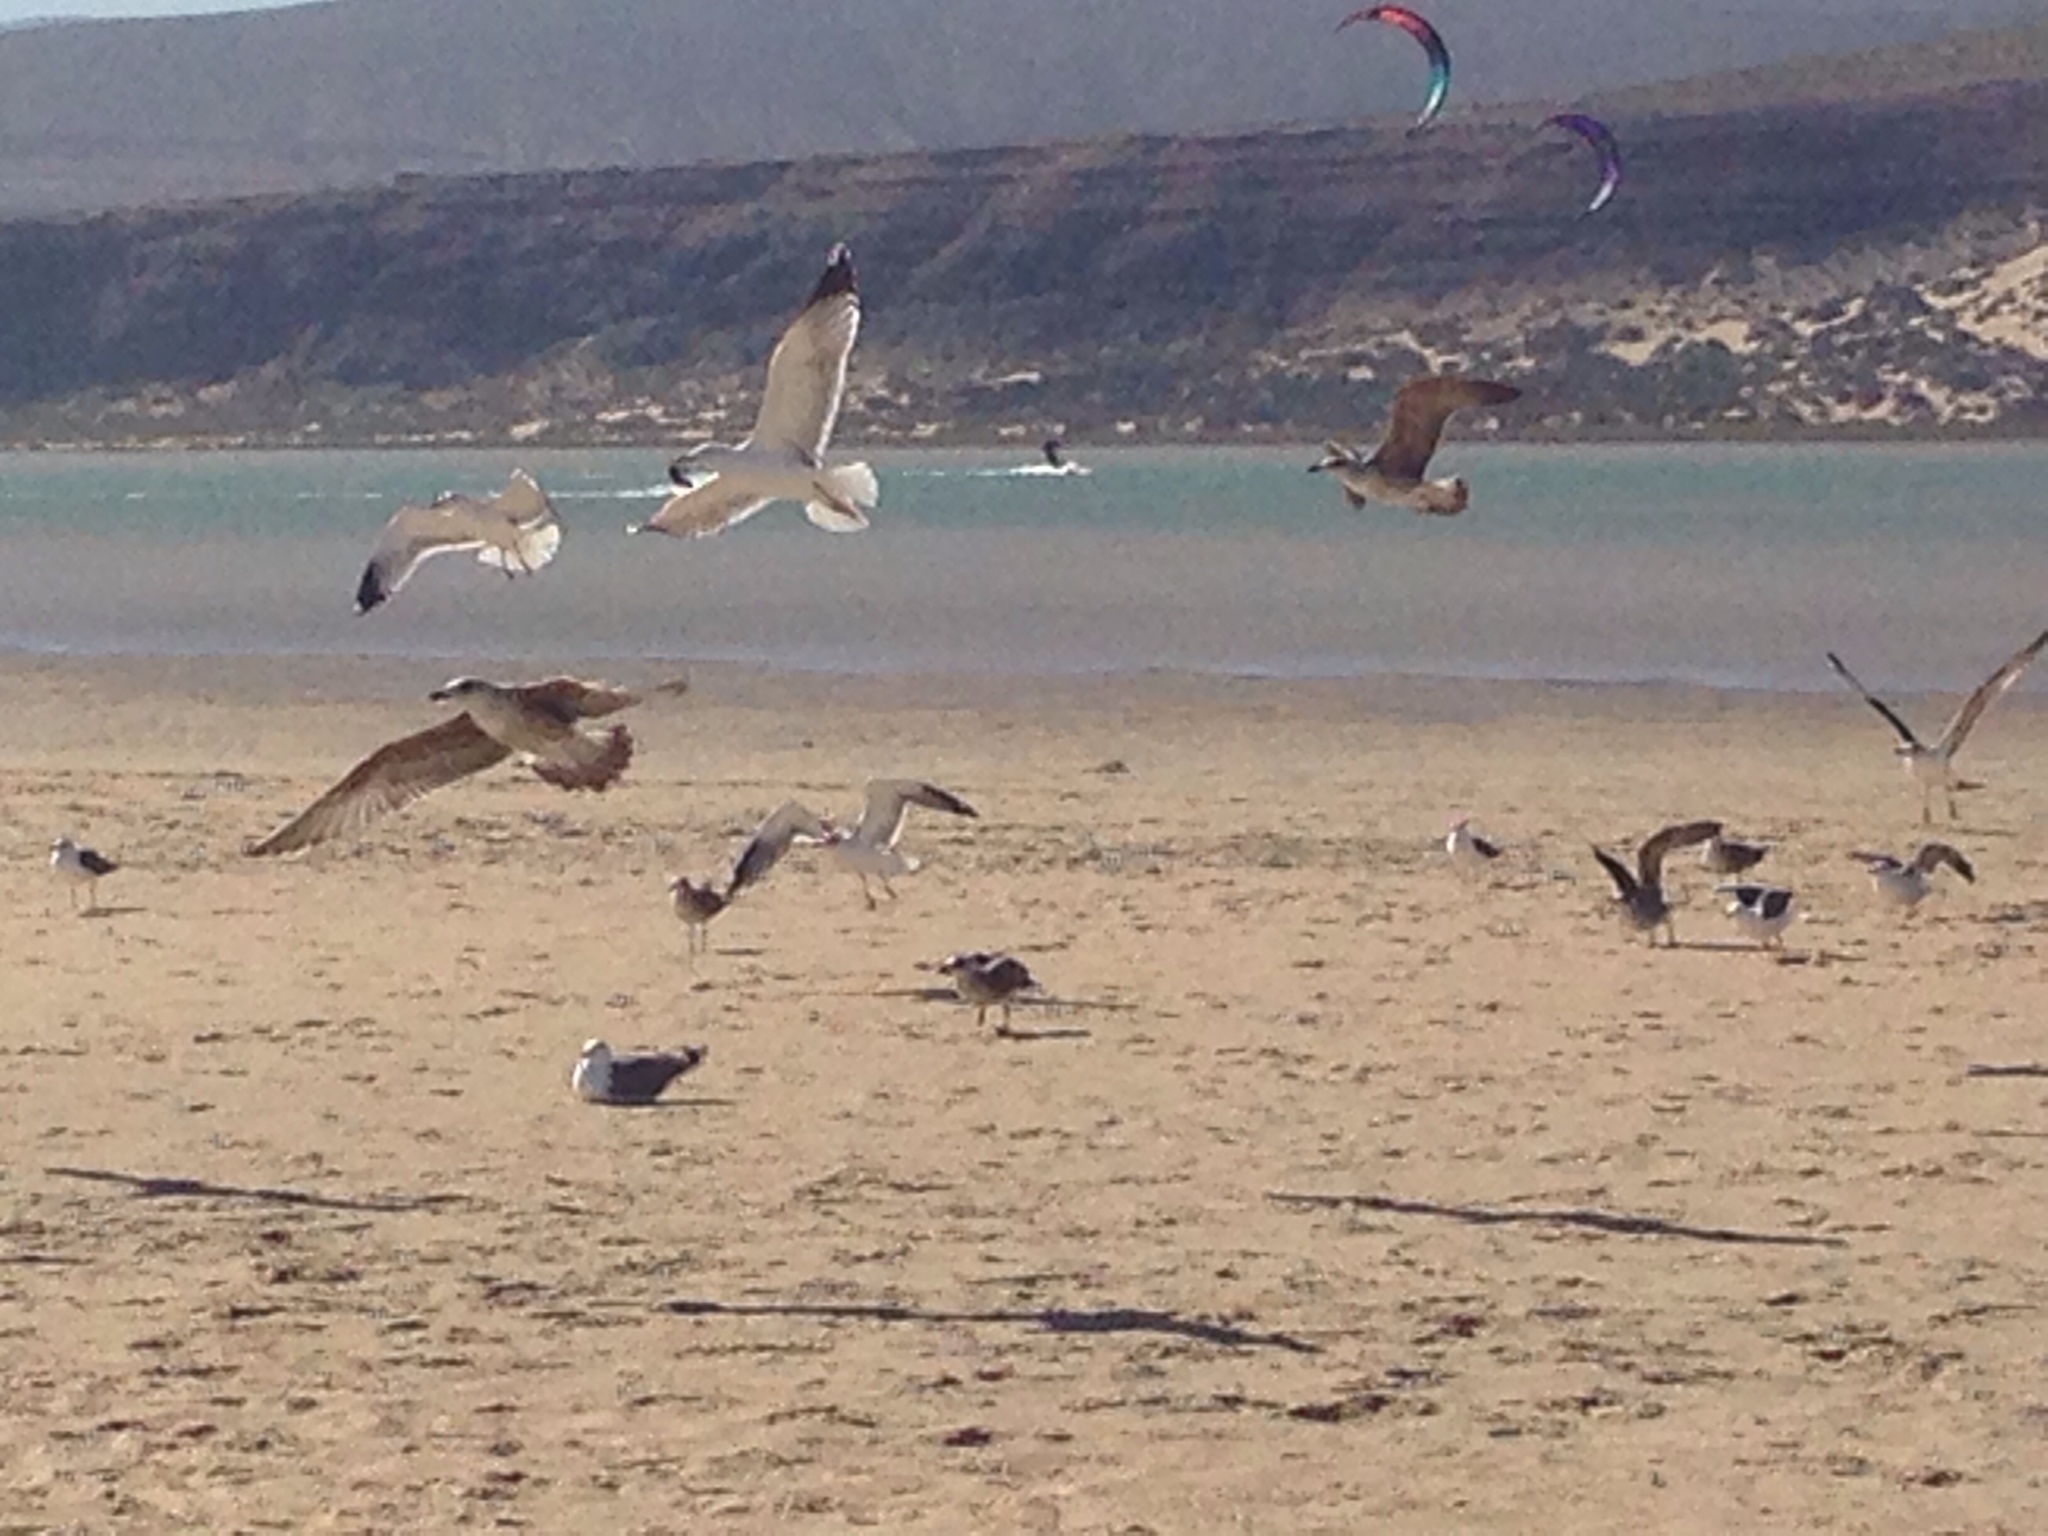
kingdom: Animalia
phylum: Chordata
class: Aves
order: Charadriiformes
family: Laridae
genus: Larus
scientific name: Larus michahellis
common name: Yellow-legged gull
